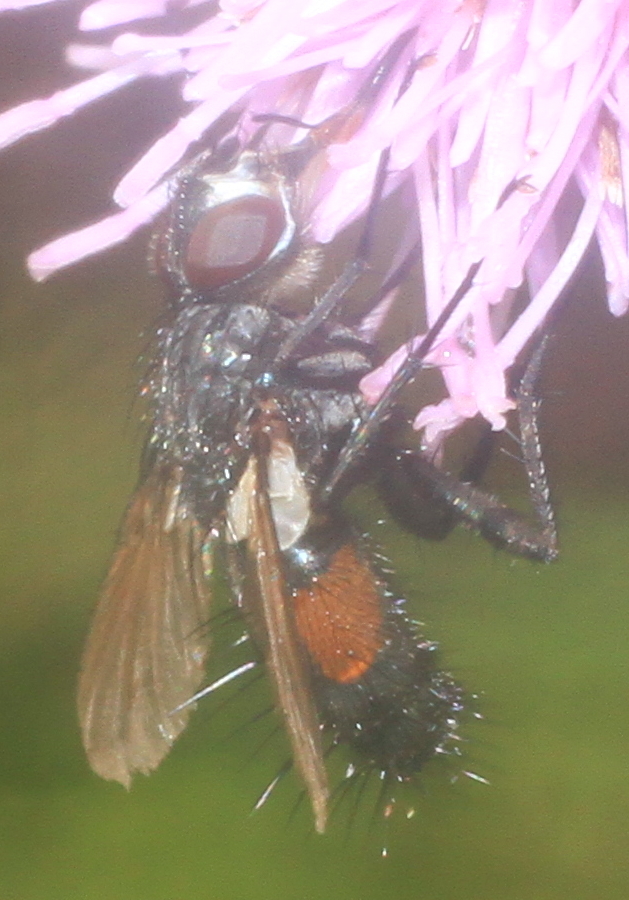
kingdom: Animalia
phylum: Arthropoda
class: Insecta
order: Diptera
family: Tachinidae
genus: Eriothrix
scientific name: Eriothrix rufomaculatus
